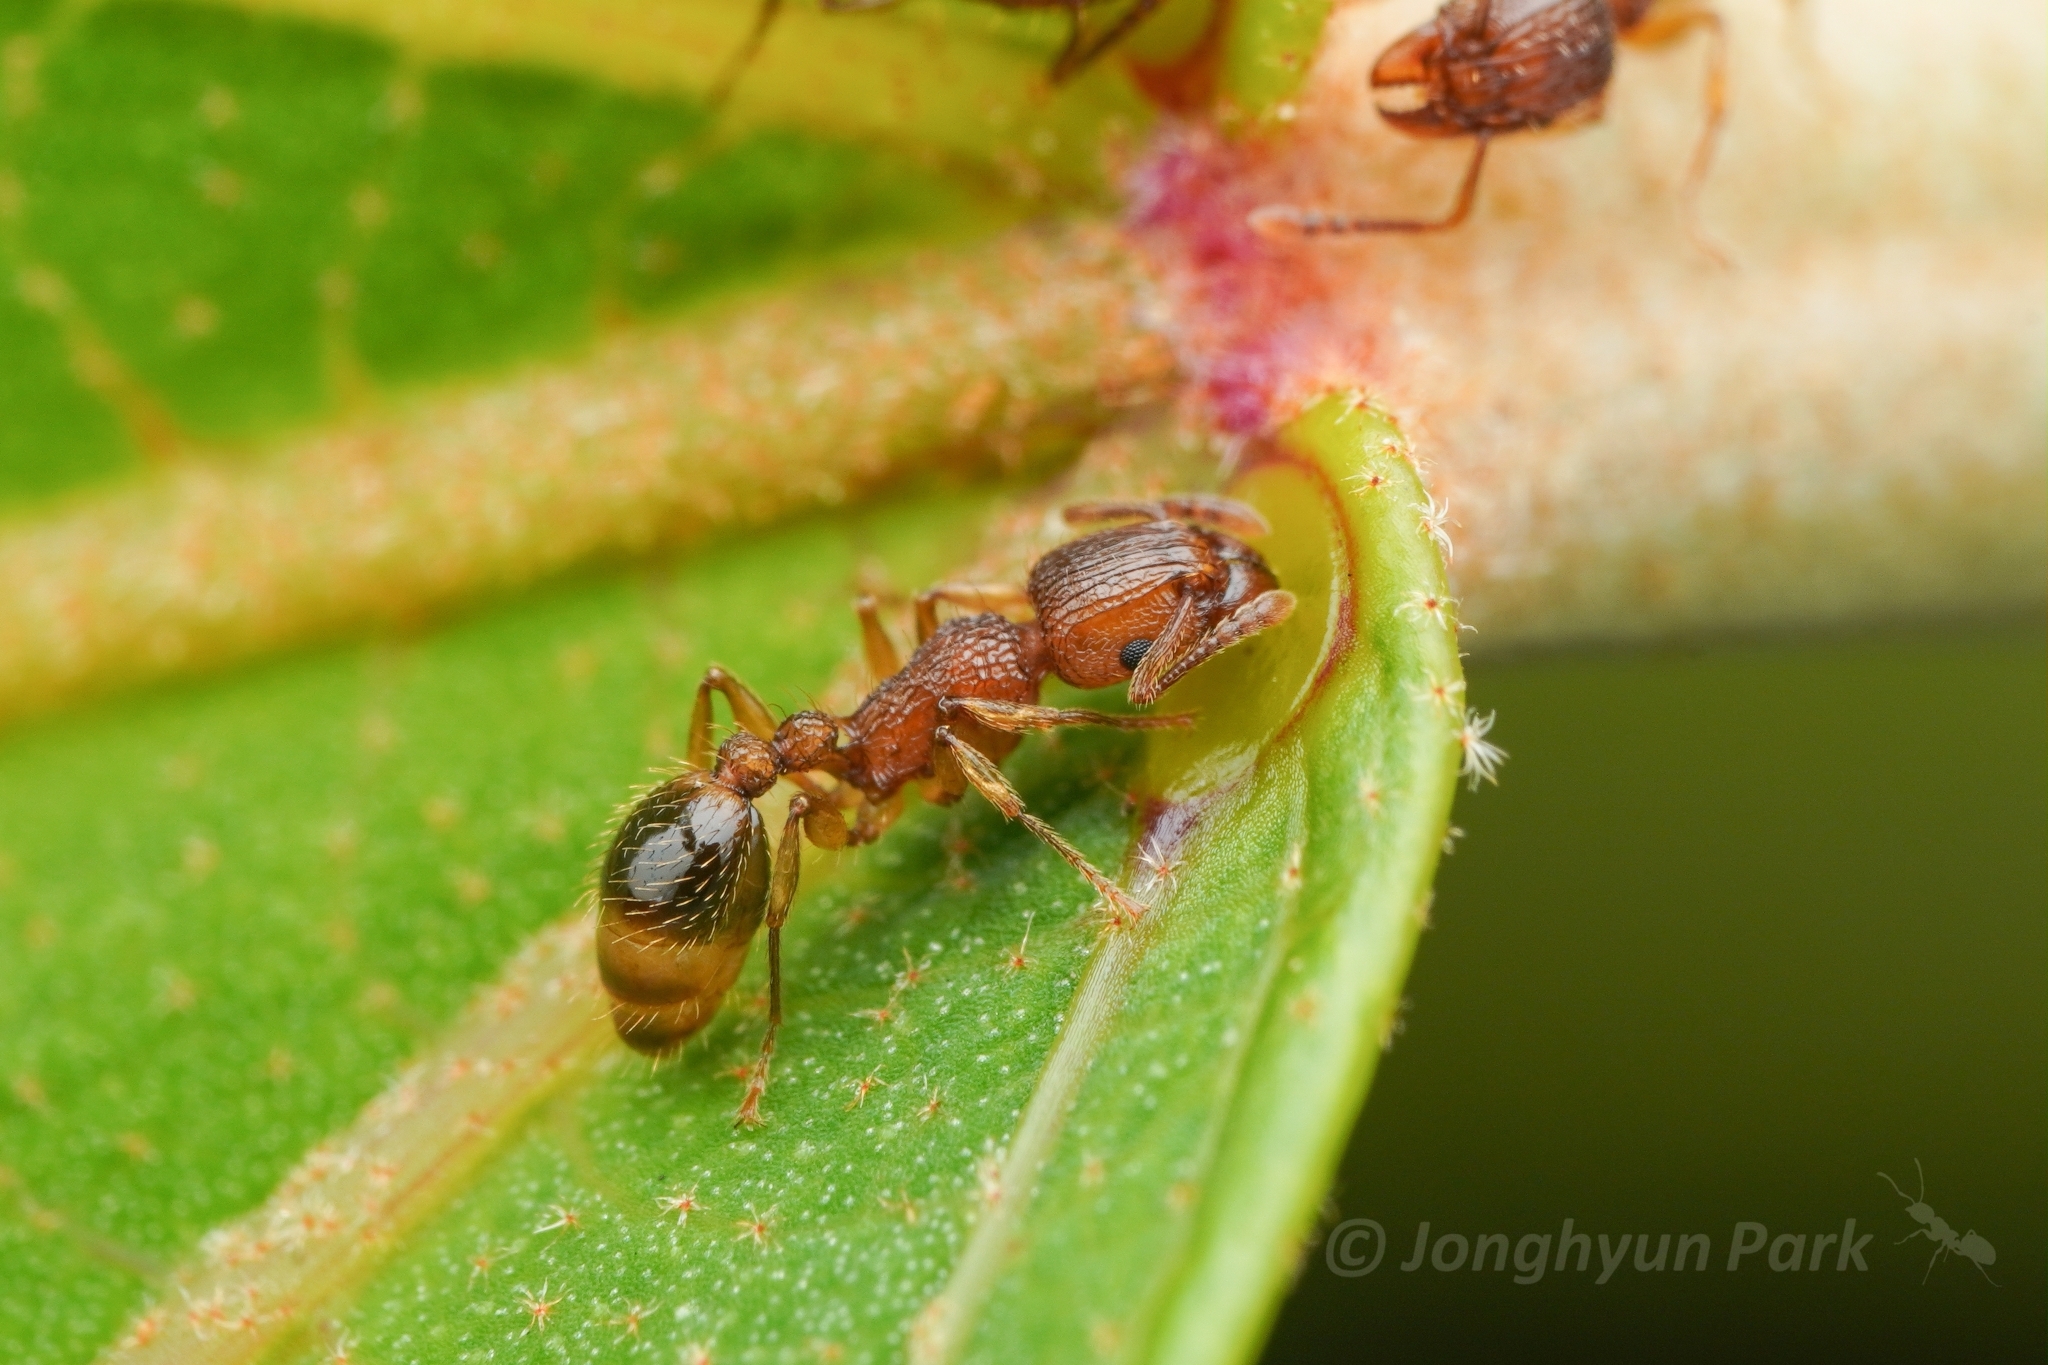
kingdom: Animalia
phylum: Arthropoda
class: Insecta
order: Hymenoptera
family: Formicidae
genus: Tetramorium
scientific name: Tetramorium bicarinatum
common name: Guinea ant
